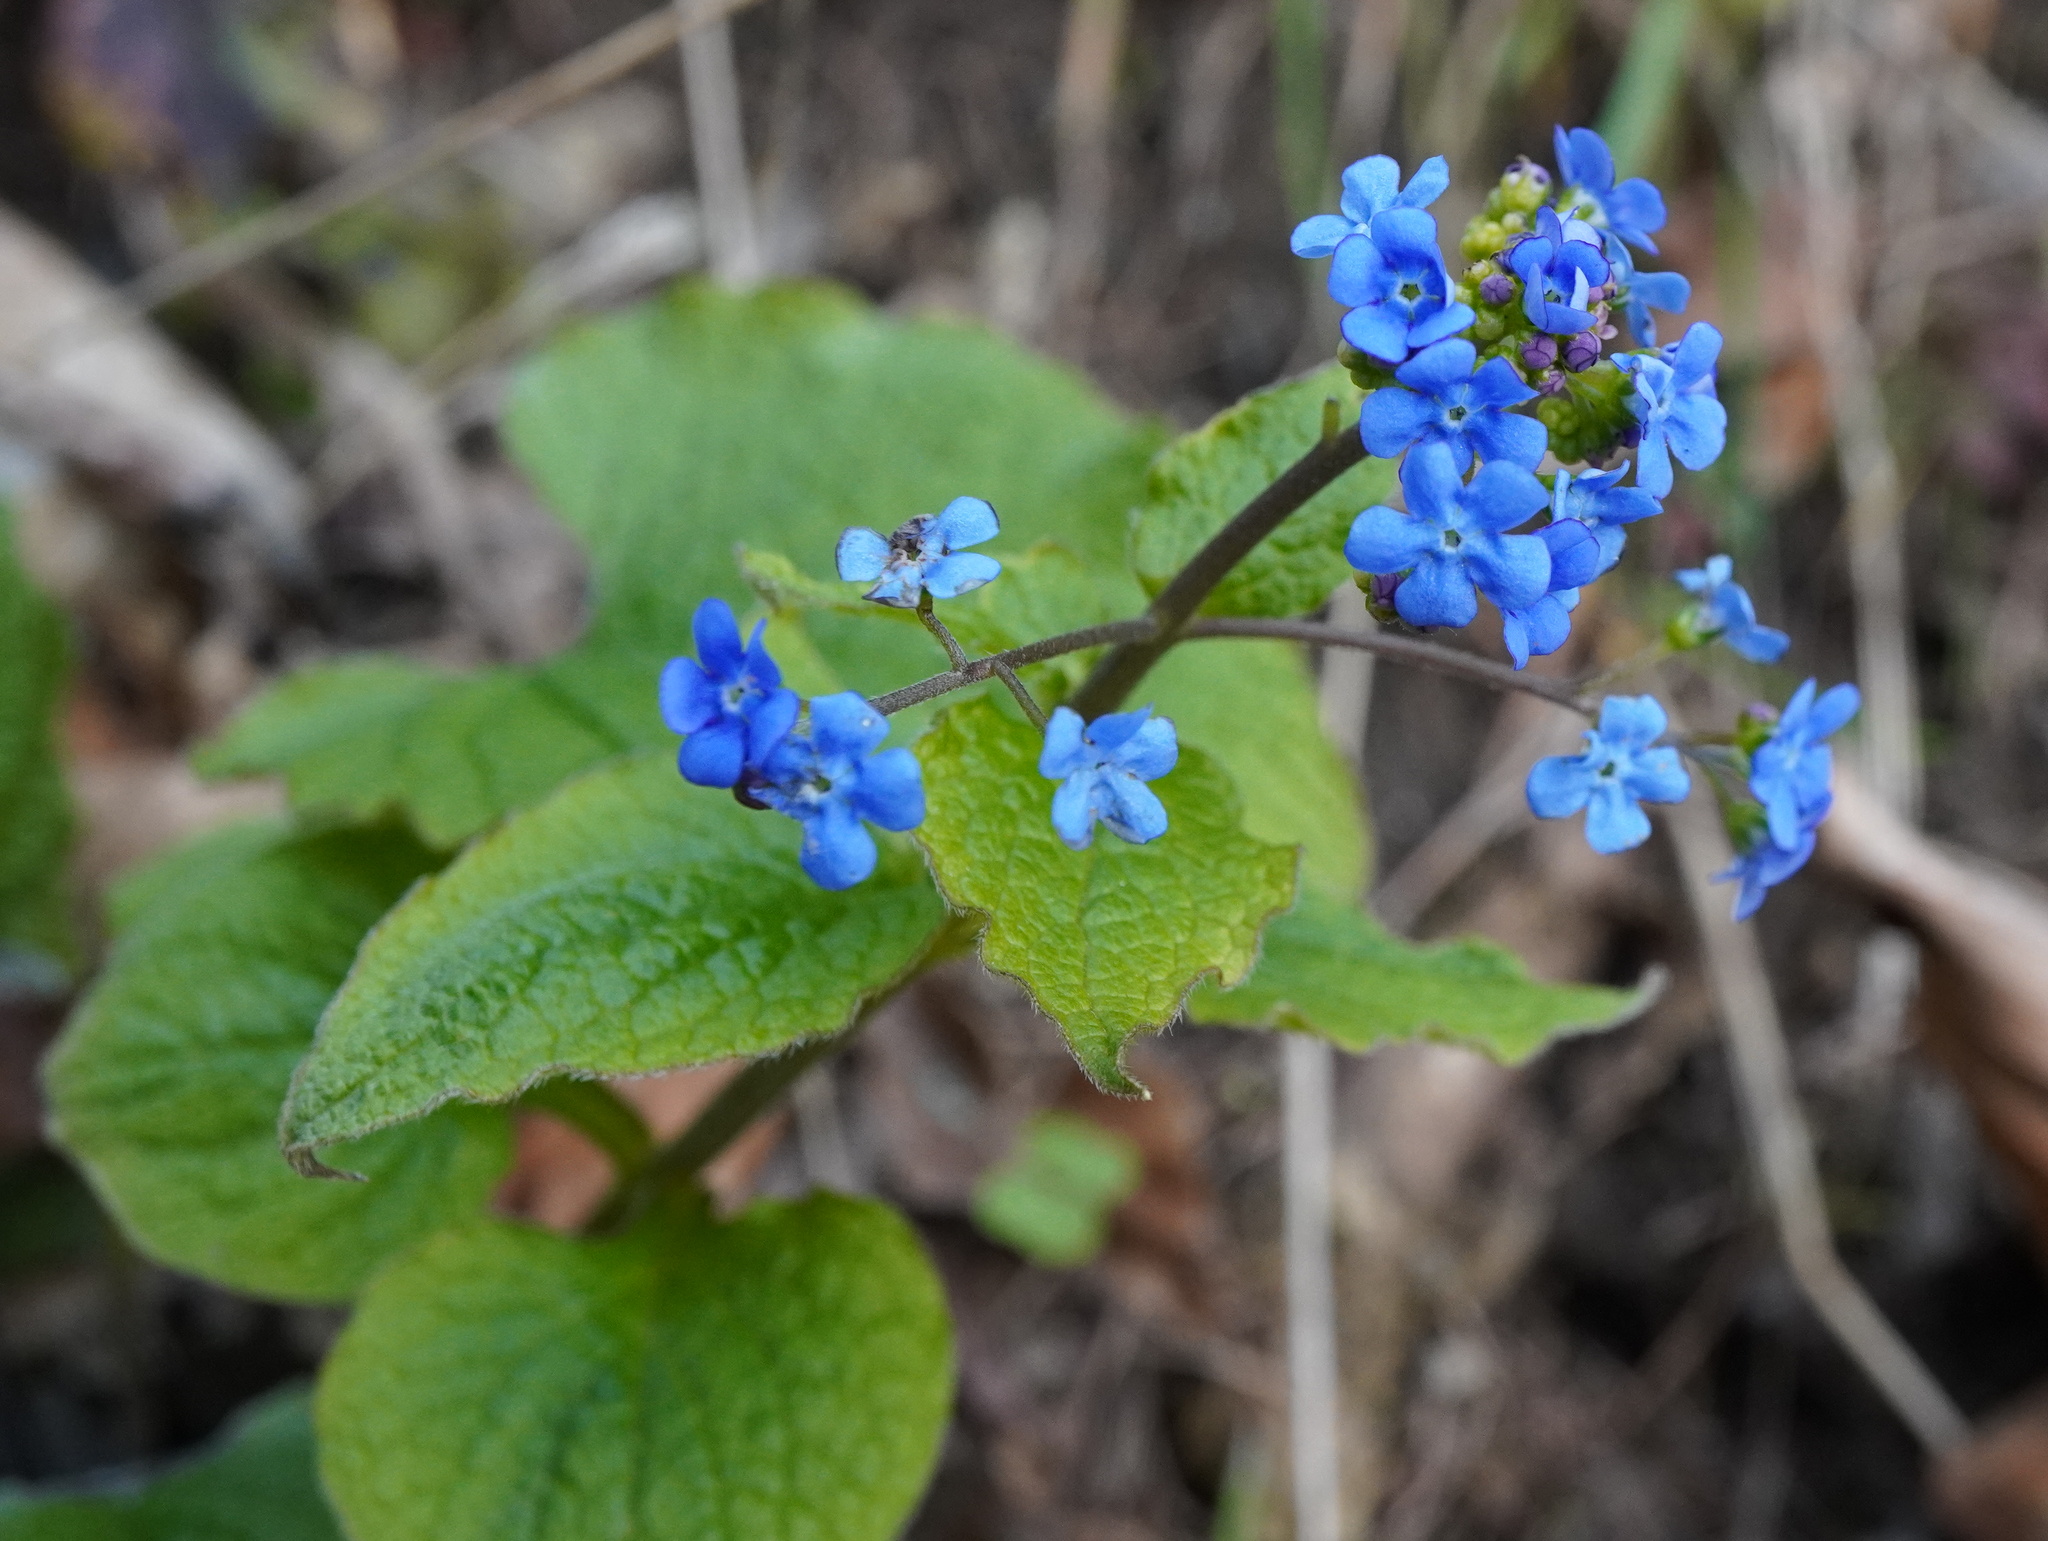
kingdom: Plantae
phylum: Tracheophyta
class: Magnoliopsida
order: Boraginales
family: Boraginaceae
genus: Brunnera
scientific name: Brunnera macrophylla
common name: Great forget-me-not
